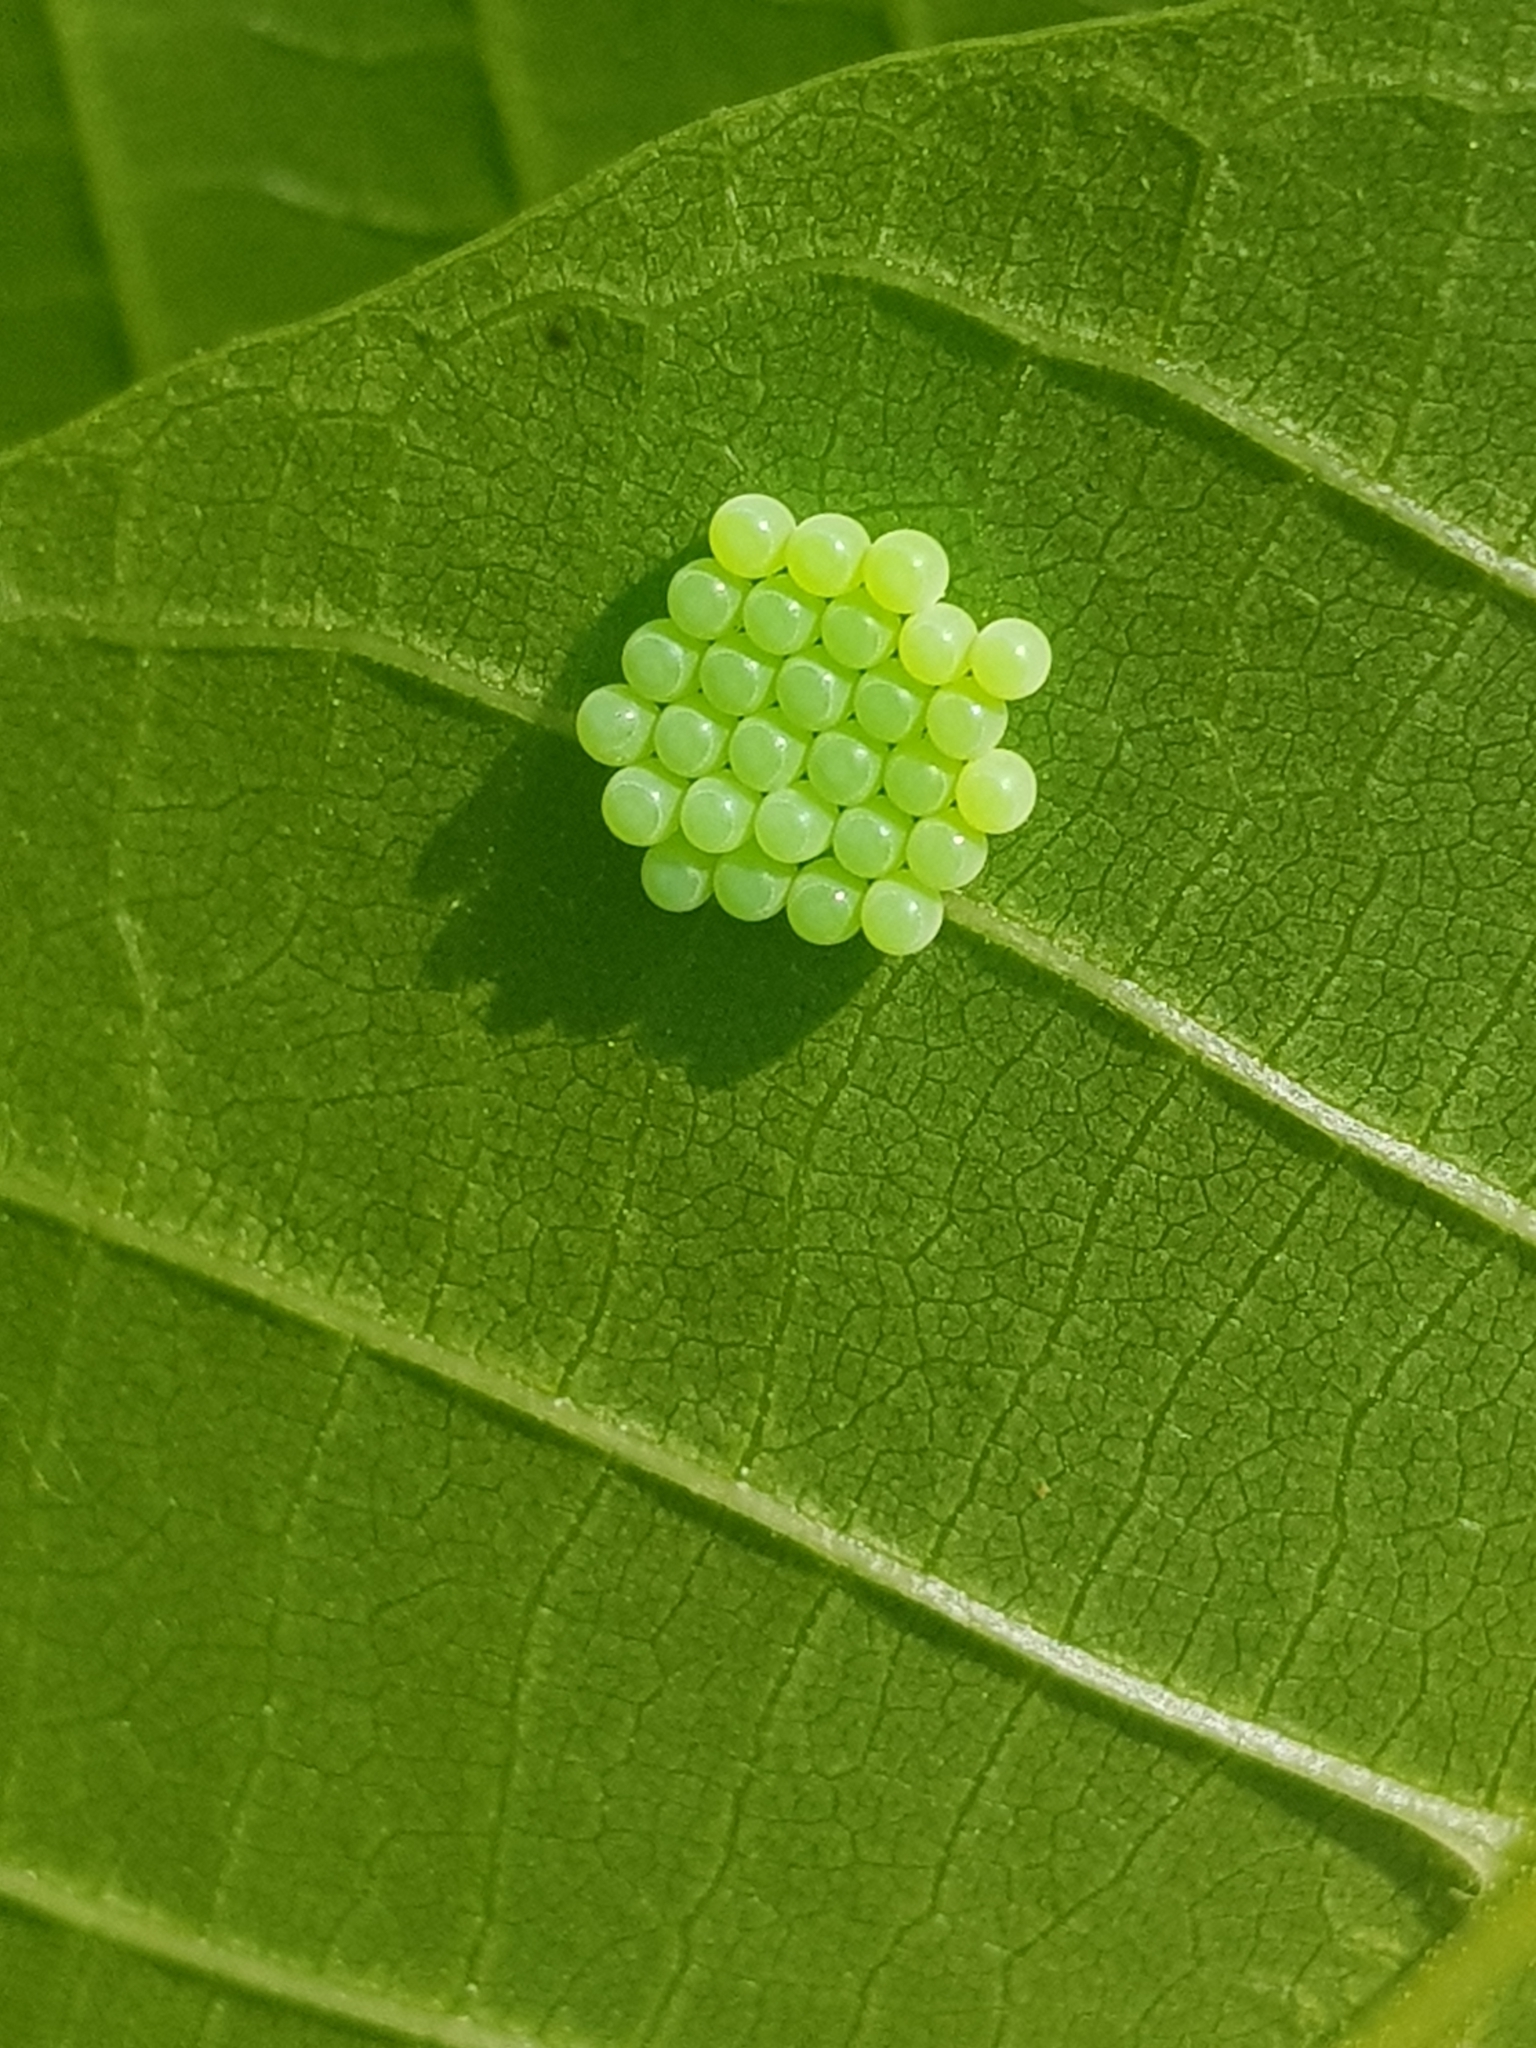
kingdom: Animalia
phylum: Arthropoda
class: Insecta
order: Hemiptera
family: Pentatomidae
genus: Palomena
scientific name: Palomena prasina
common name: Green shieldbug
